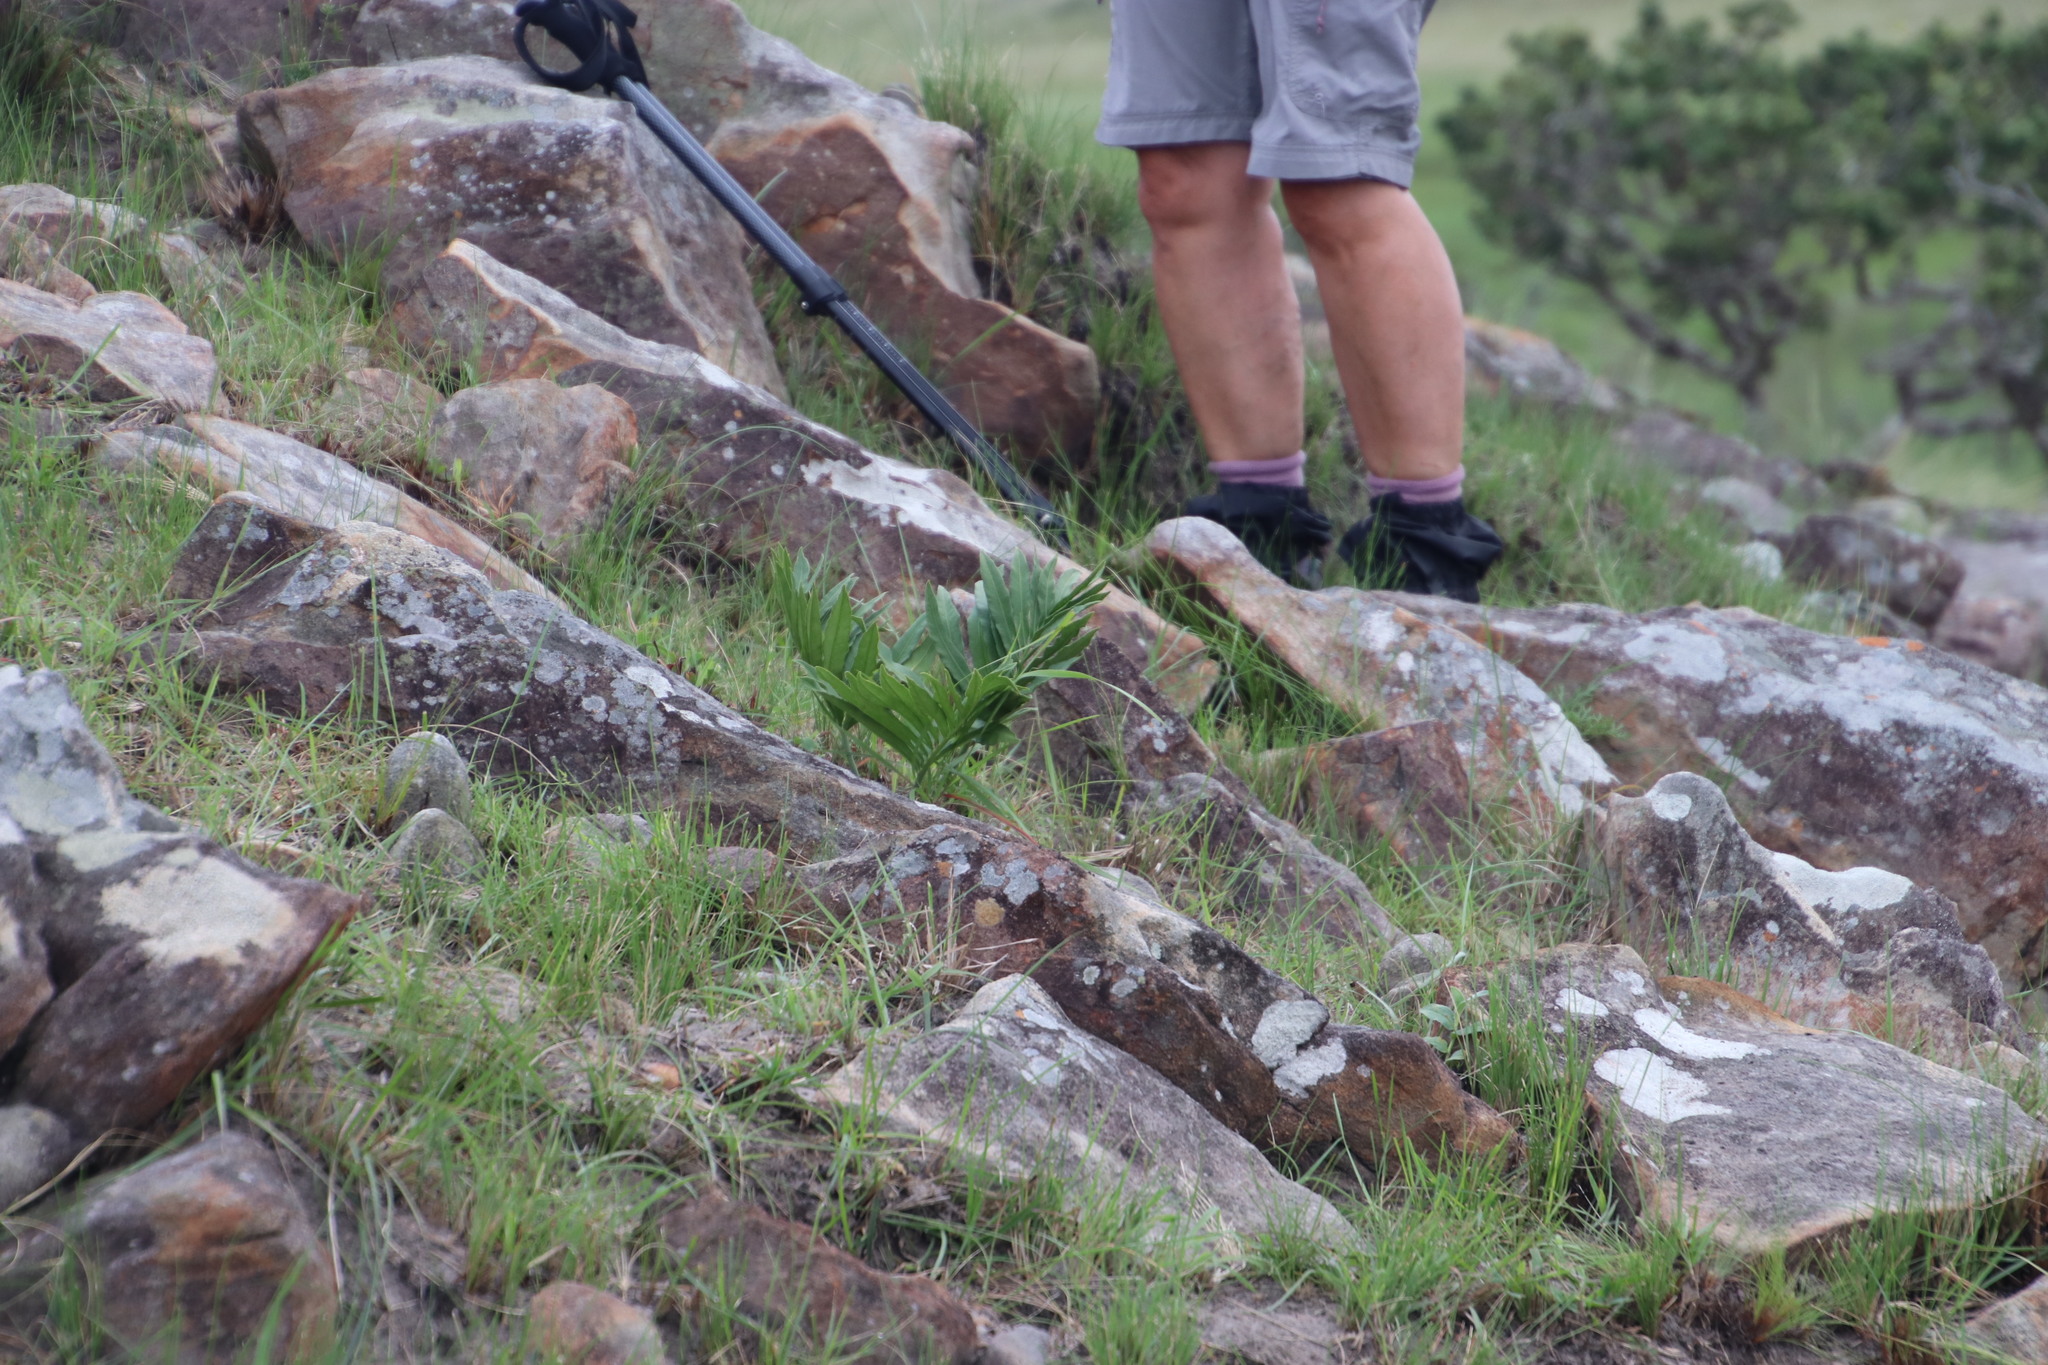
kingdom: Plantae
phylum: Tracheophyta
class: Cycadopsida
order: Cycadales
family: Zamiaceae
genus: Stangeria
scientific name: Stangeria eriopus
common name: Natal grass cycad
